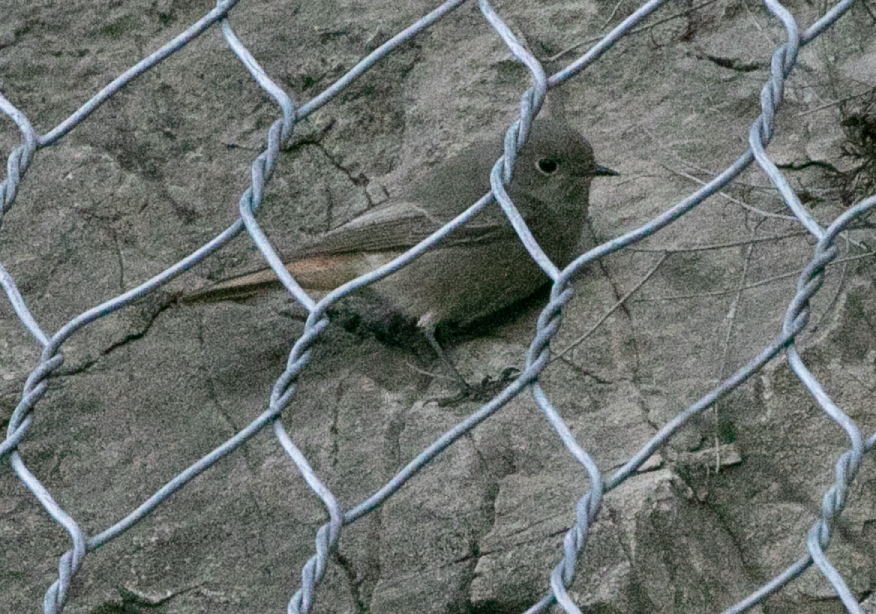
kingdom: Animalia
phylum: Chordata
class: Aves
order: Passeriformes
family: Muscicapidae
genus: Phoenicurus
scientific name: Phoenicurus ochruros
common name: Black redstart
